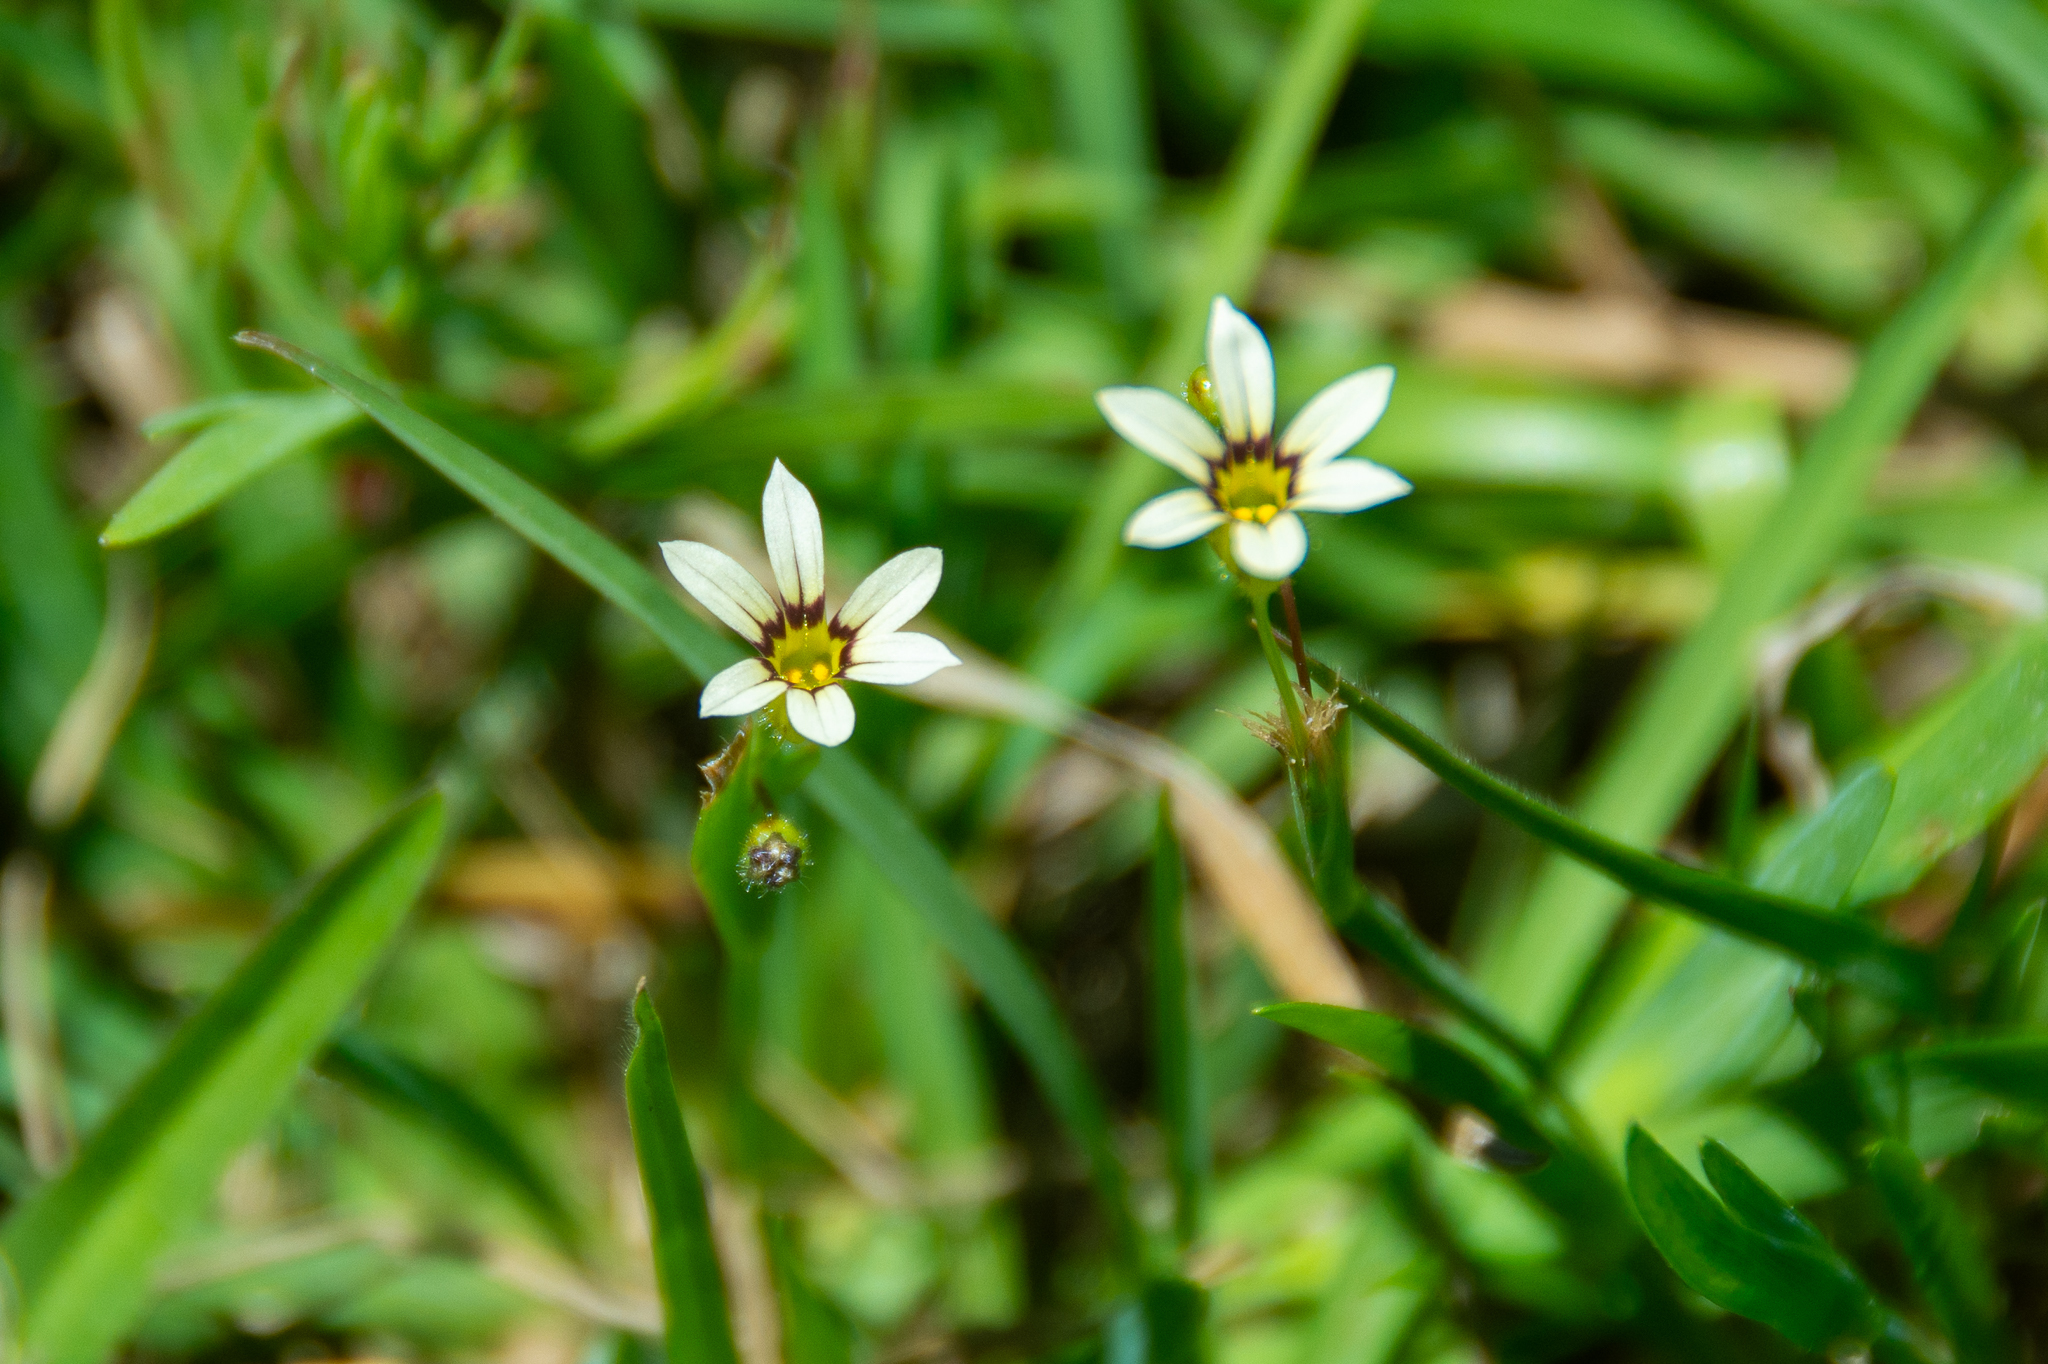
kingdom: Plantae
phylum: Tracheophyta
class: Liliopsida
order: Asparagales
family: Iridaceae
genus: Sisyrinchium
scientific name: Sisyrinchium micranthum
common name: Bermuda pigroot
